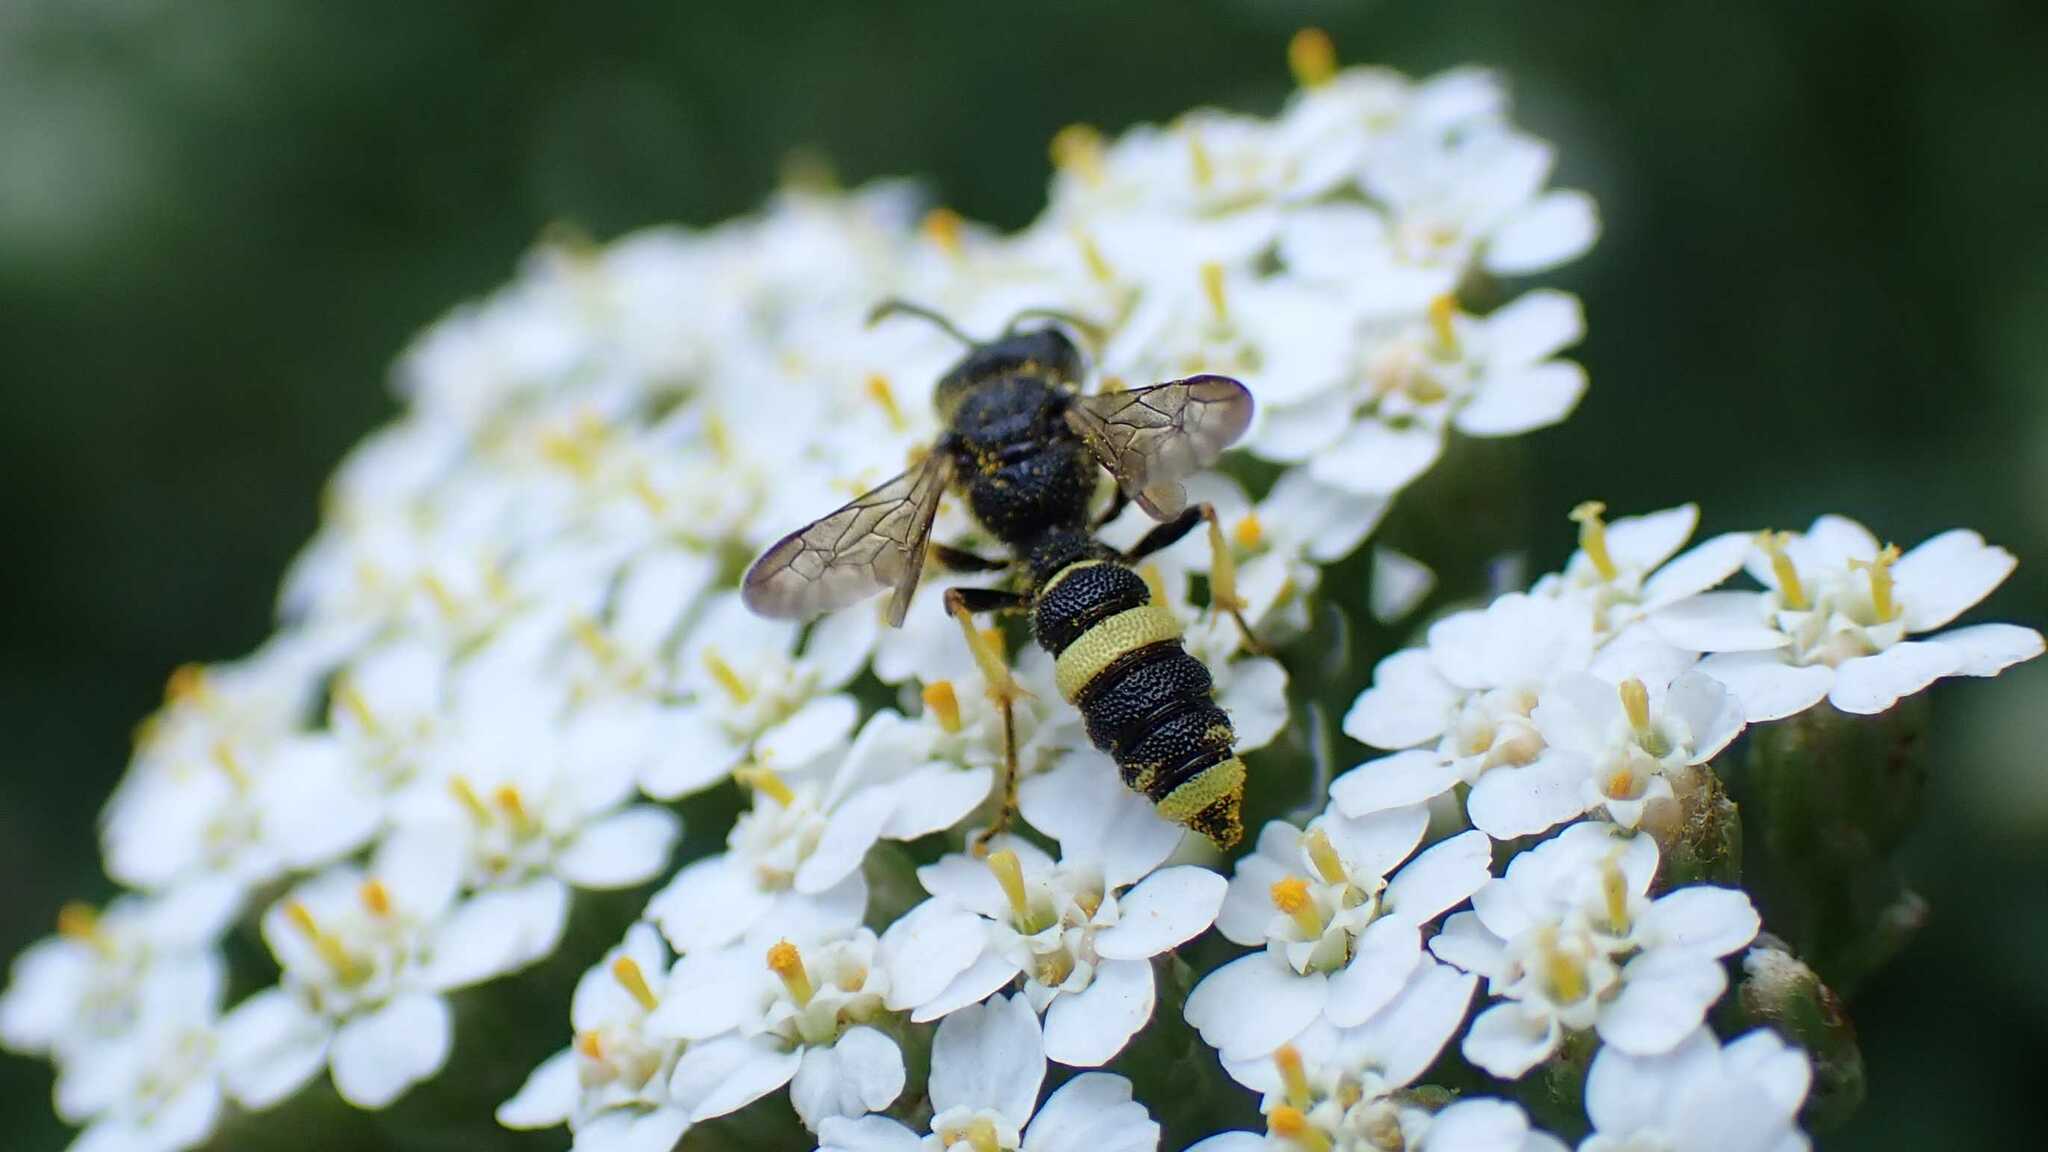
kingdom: Animalia
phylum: Arthropoda
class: Insecta
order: Hymenoptera
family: Crabronidae
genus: Cerceris
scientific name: Cerceris rybyensis
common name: Ornate tailed digger wasp
